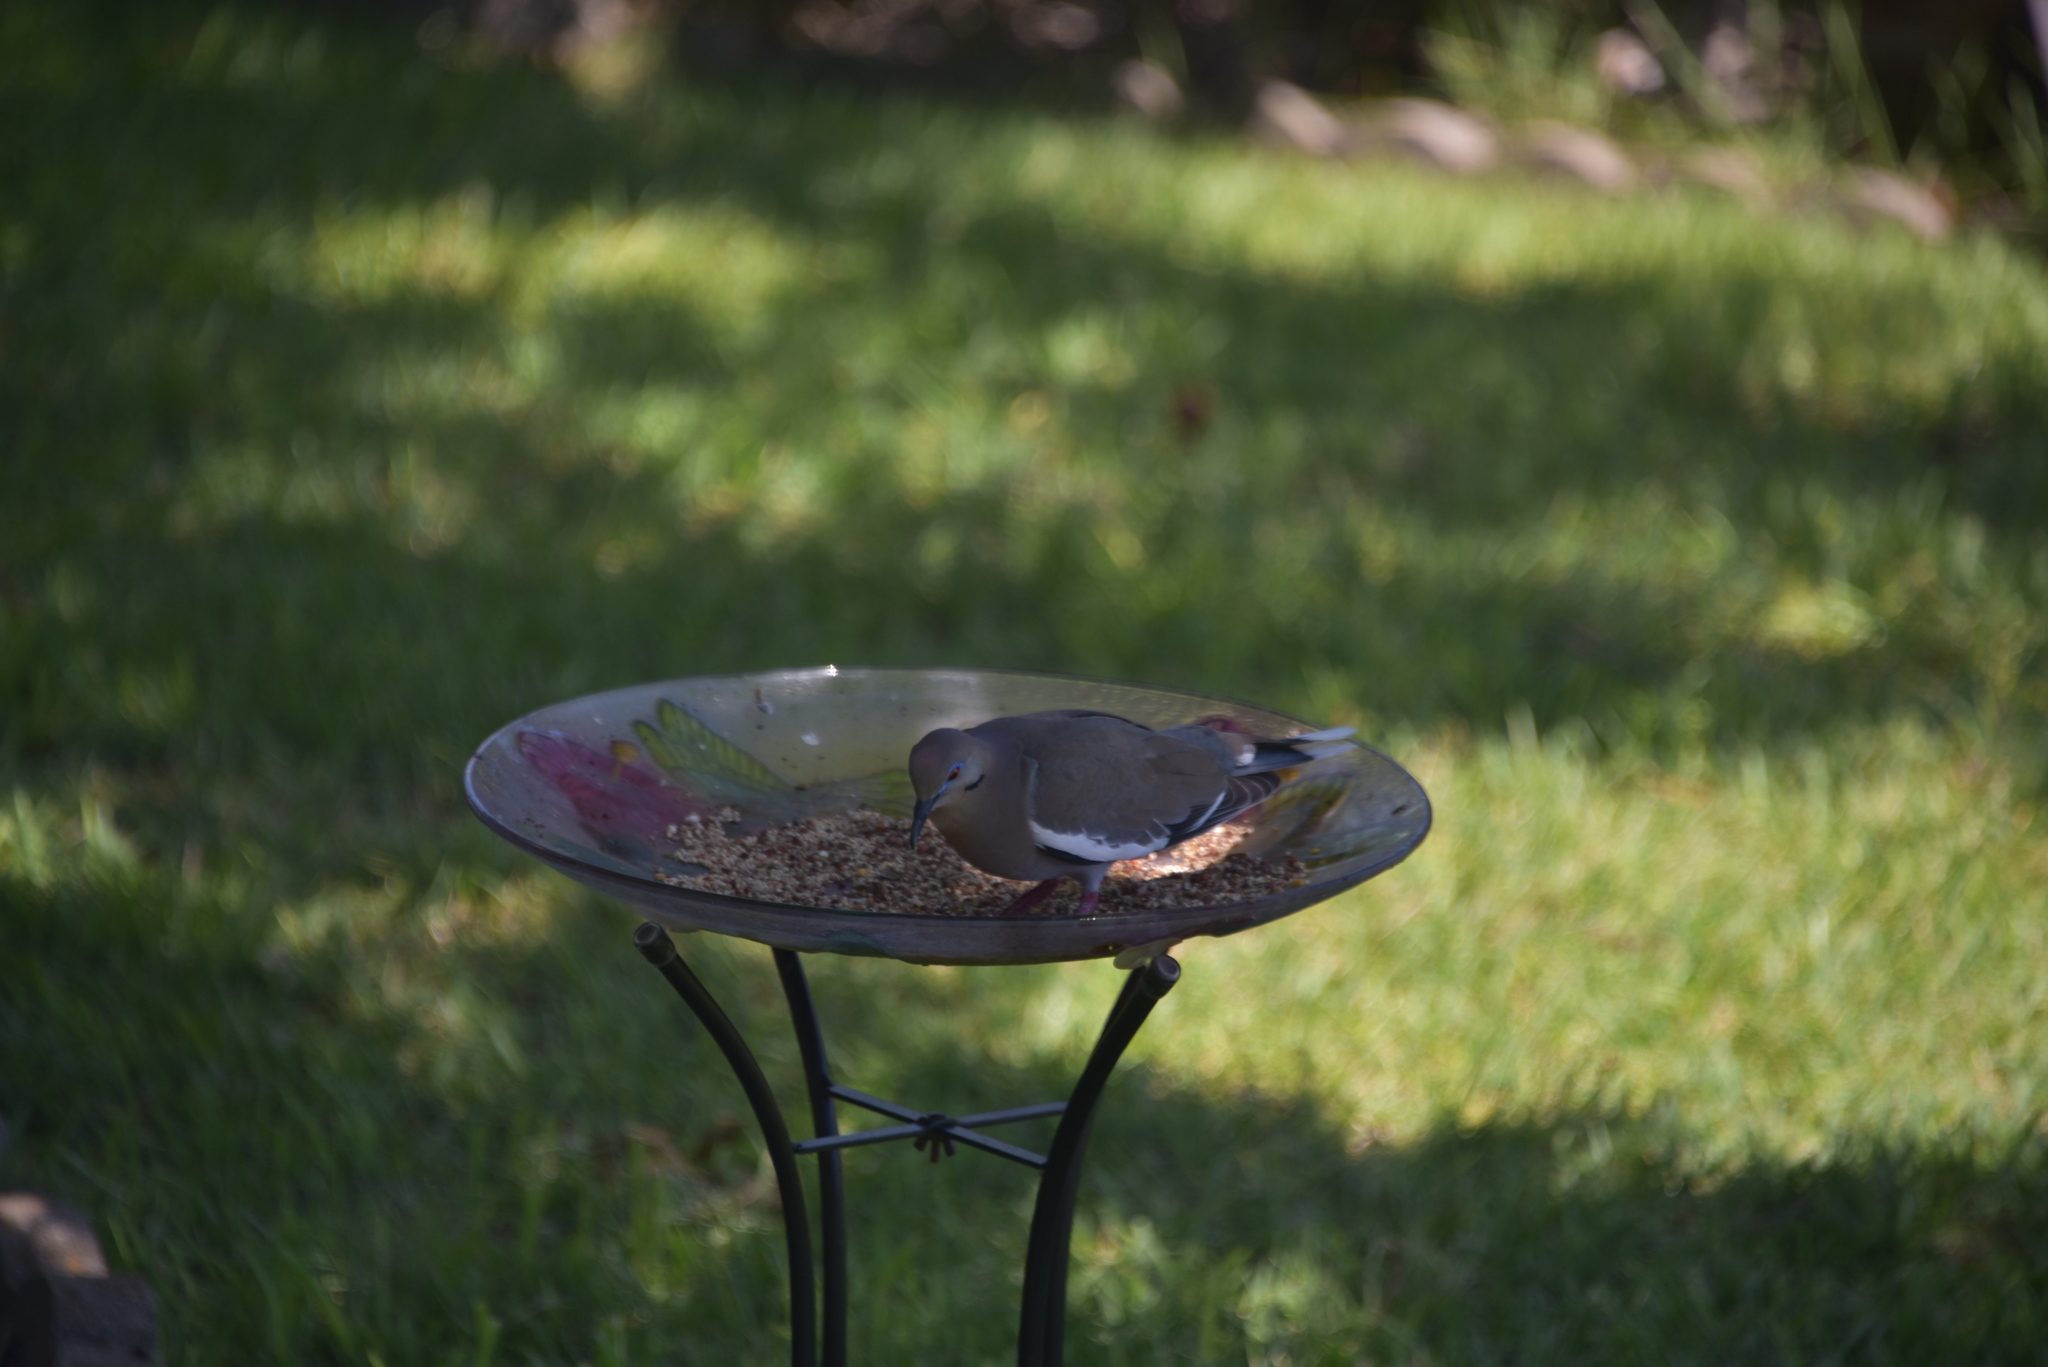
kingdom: Animalia
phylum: Chordata
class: Aves
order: Columbiformes
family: Columbidae
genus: Zenaida
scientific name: Zenaida asiatica
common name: White-winged dove
